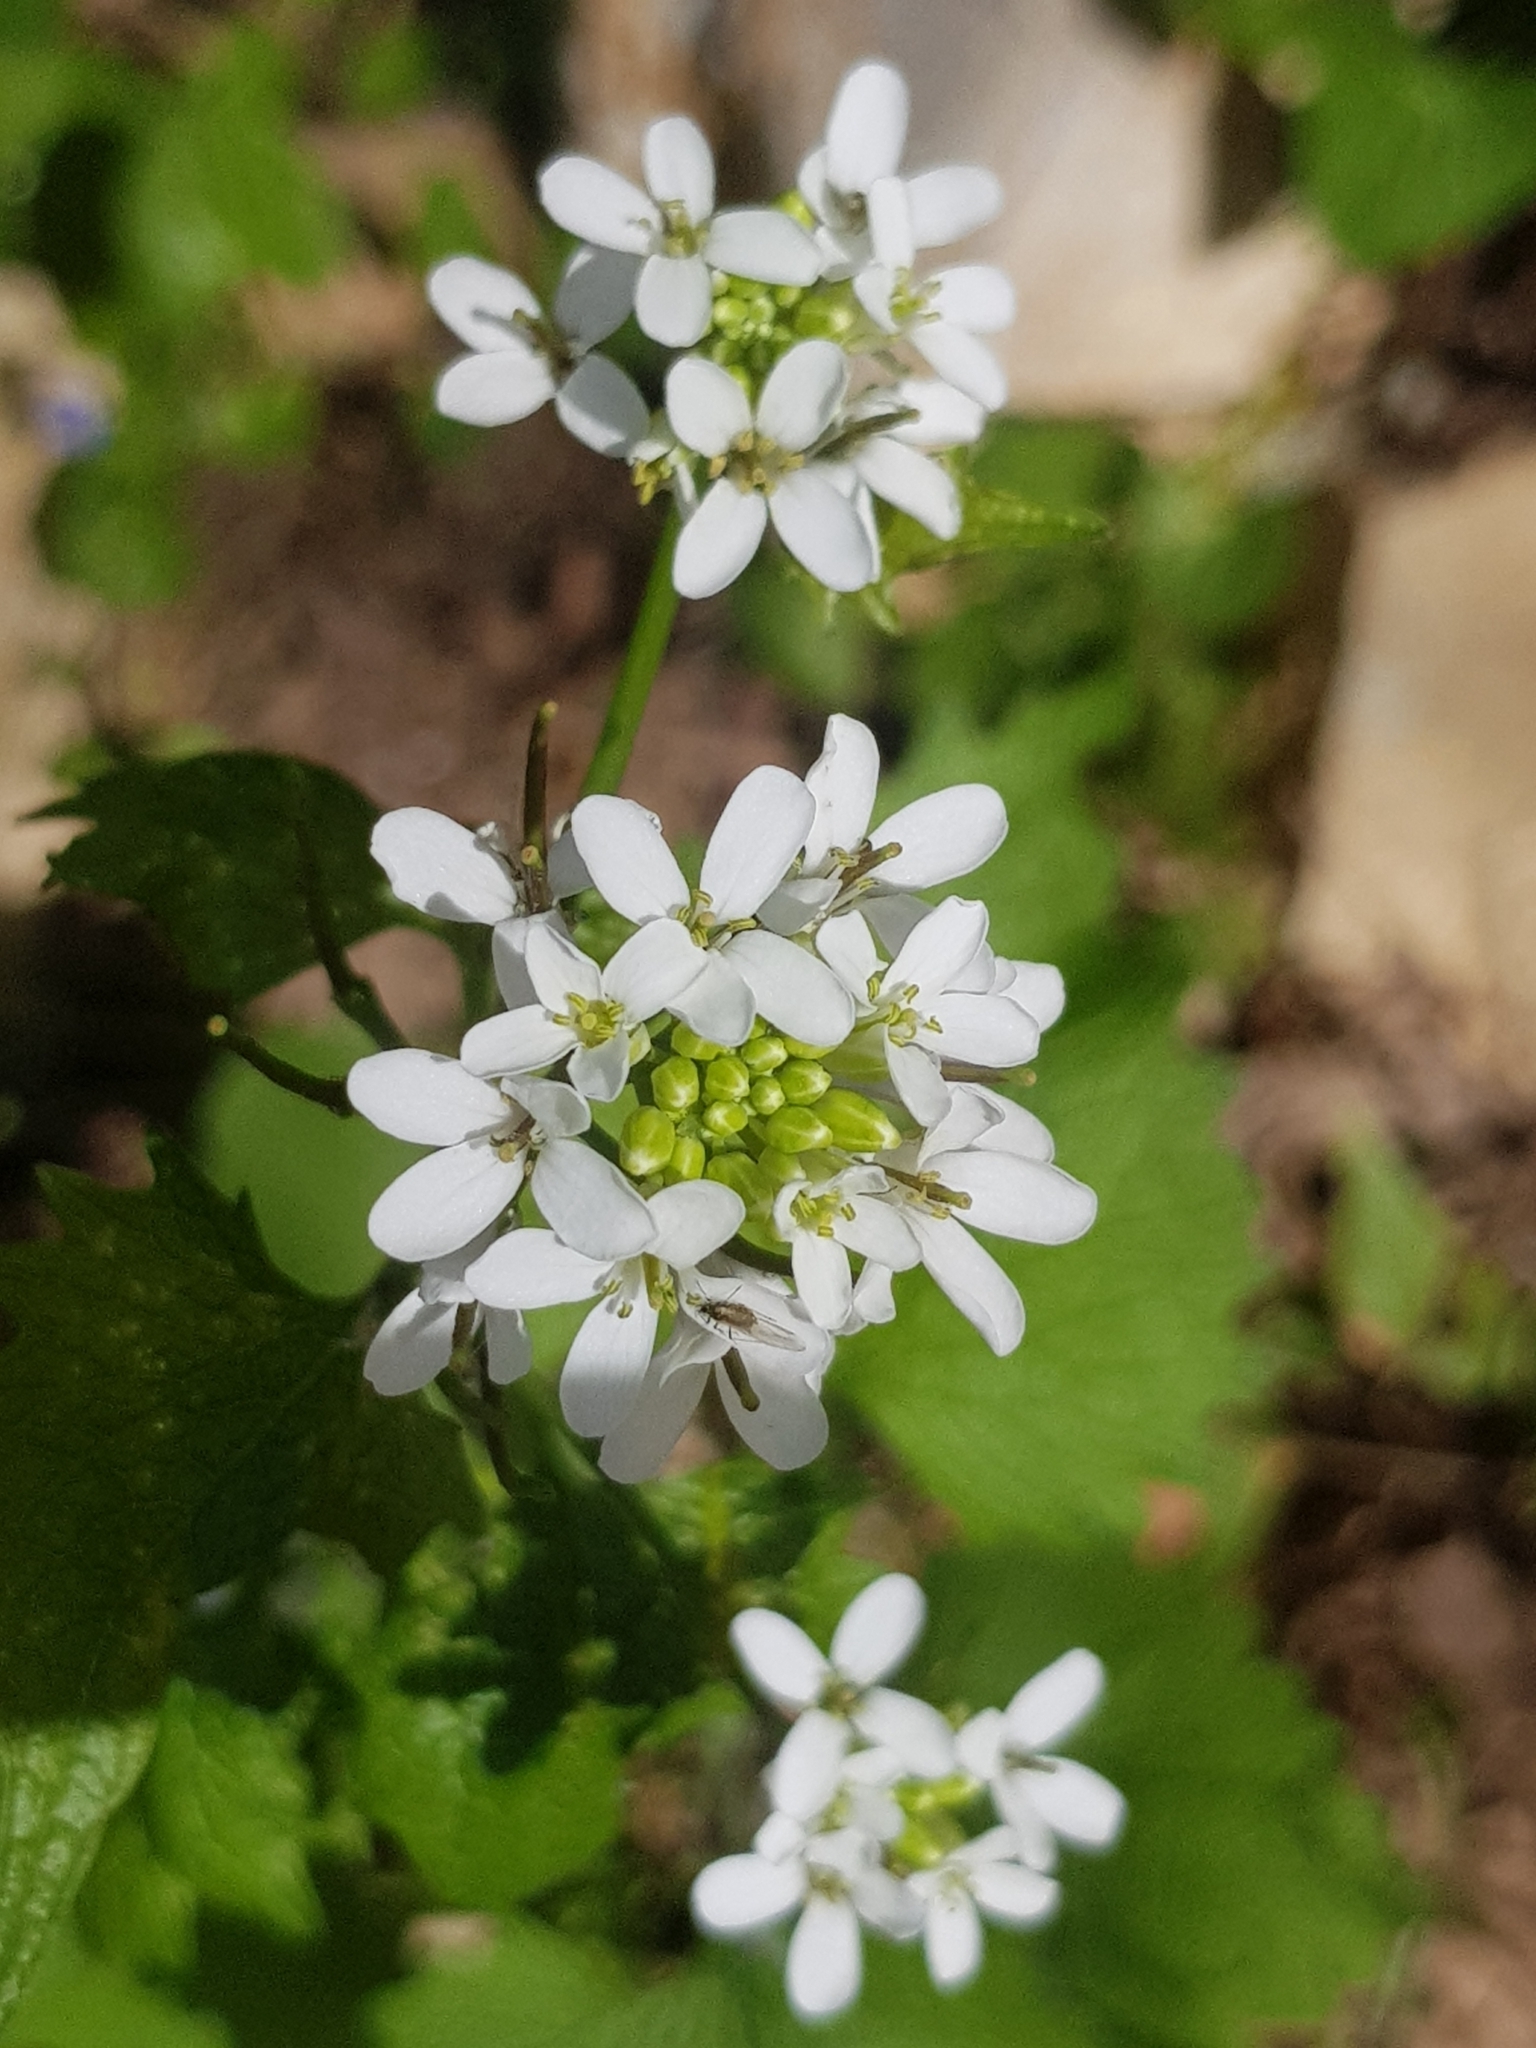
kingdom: Plantae
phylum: Tracheophyta
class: Magnoliopsida
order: Brassicales
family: Brassicaceae
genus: Alliaria
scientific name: Alliaria petiolata
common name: Garlic mustard
